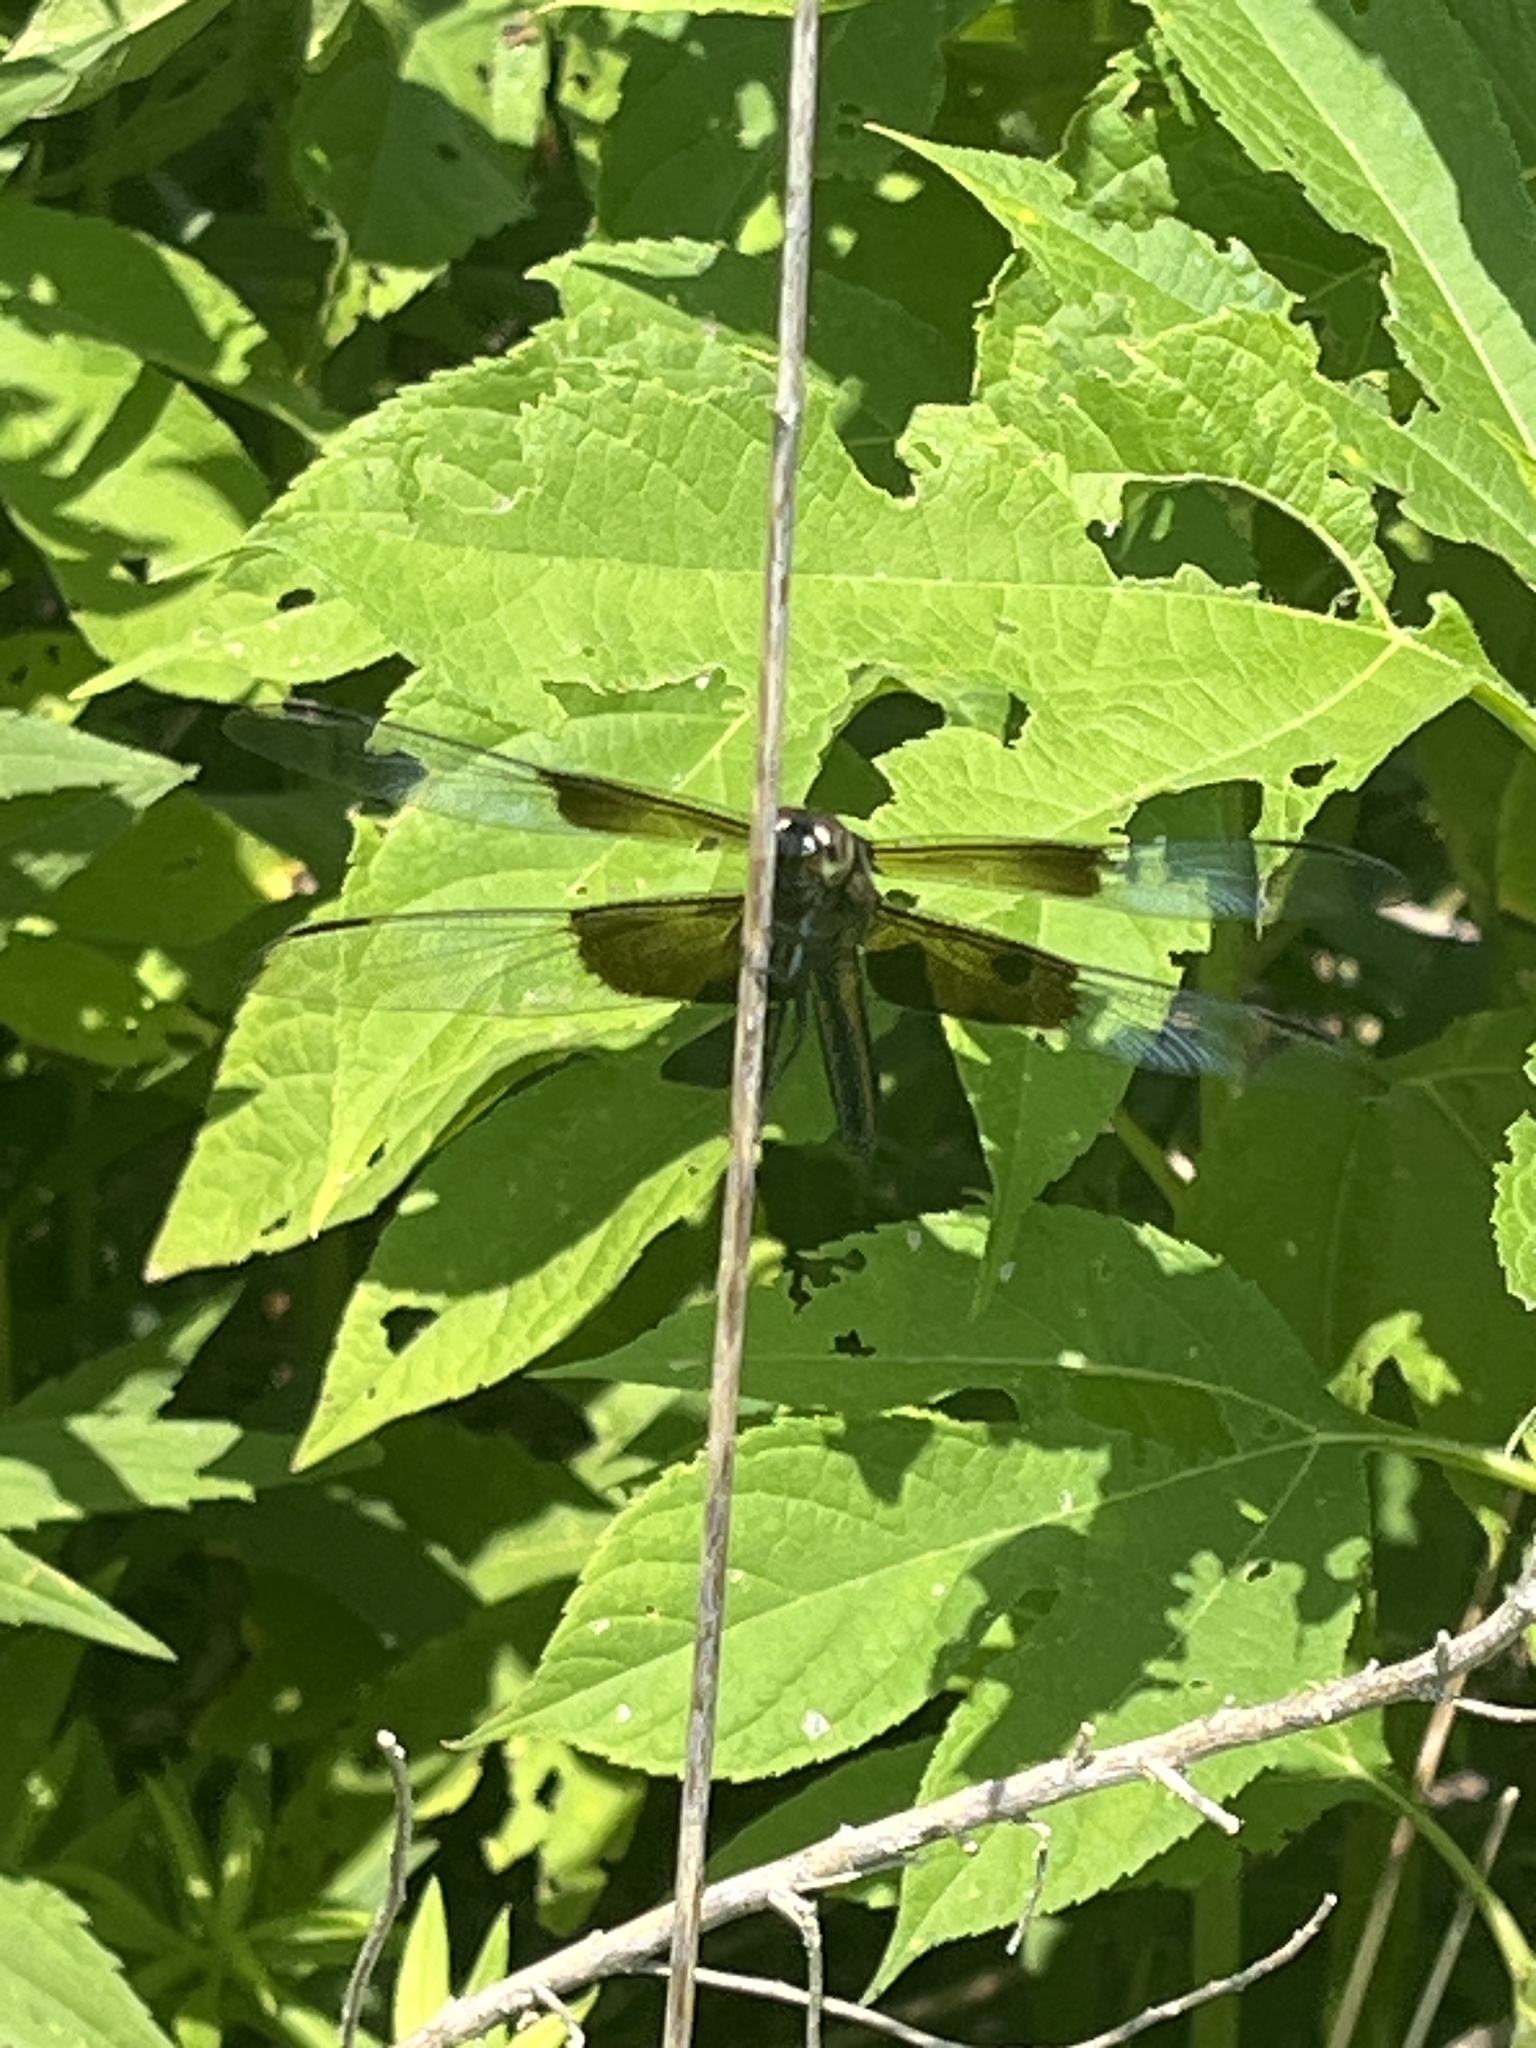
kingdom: Animalia
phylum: Arthropoda
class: Insecta
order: Odonata
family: Libellulidae
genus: Libellula
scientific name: Libellula luctuosa
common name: Widow skimmer
